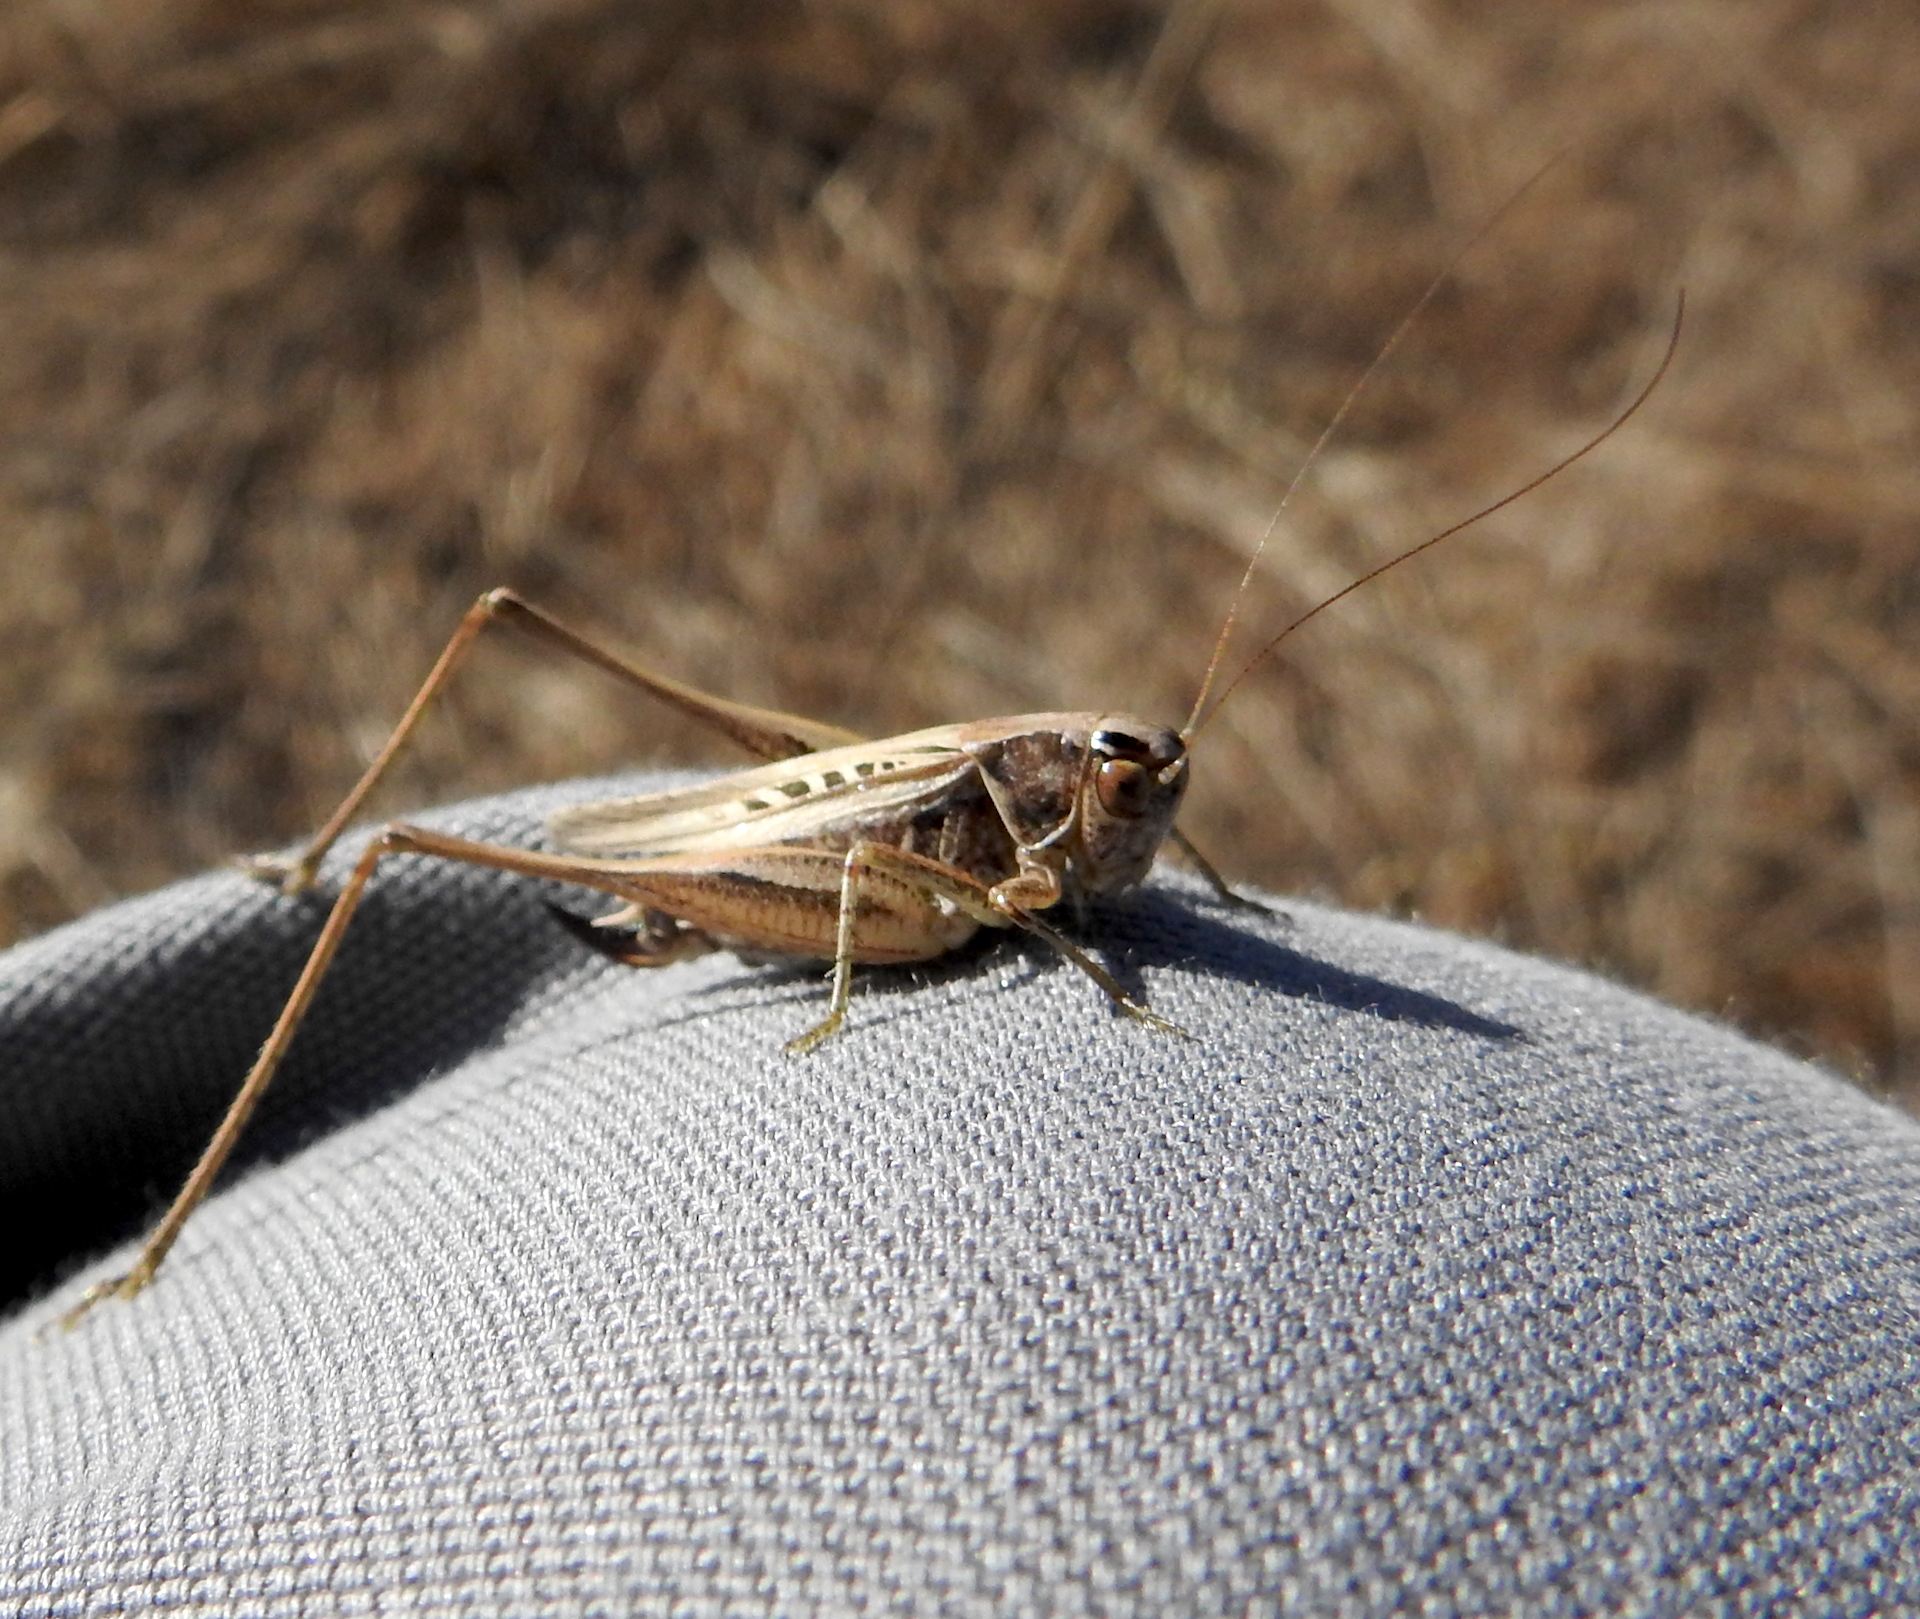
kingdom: Animalia
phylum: Arthropoda
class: Insecta
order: Orthoptera
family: Tettigoniidae
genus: Tessellana
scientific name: Tessellana tessellata
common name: Grasshopper
